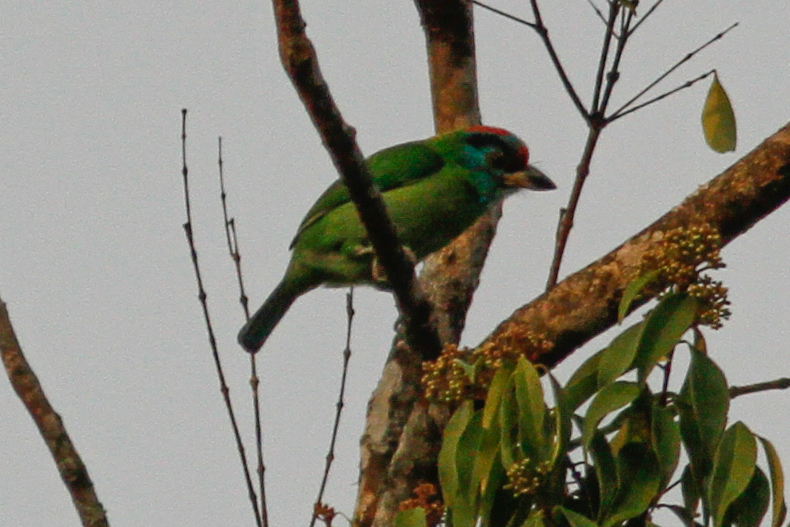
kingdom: Animalia
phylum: Chordata
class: Aves
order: Piciformes
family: Megalaimidae
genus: Psilopogon
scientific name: Psilopogon asiaticus
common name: Blue-throated barbet
